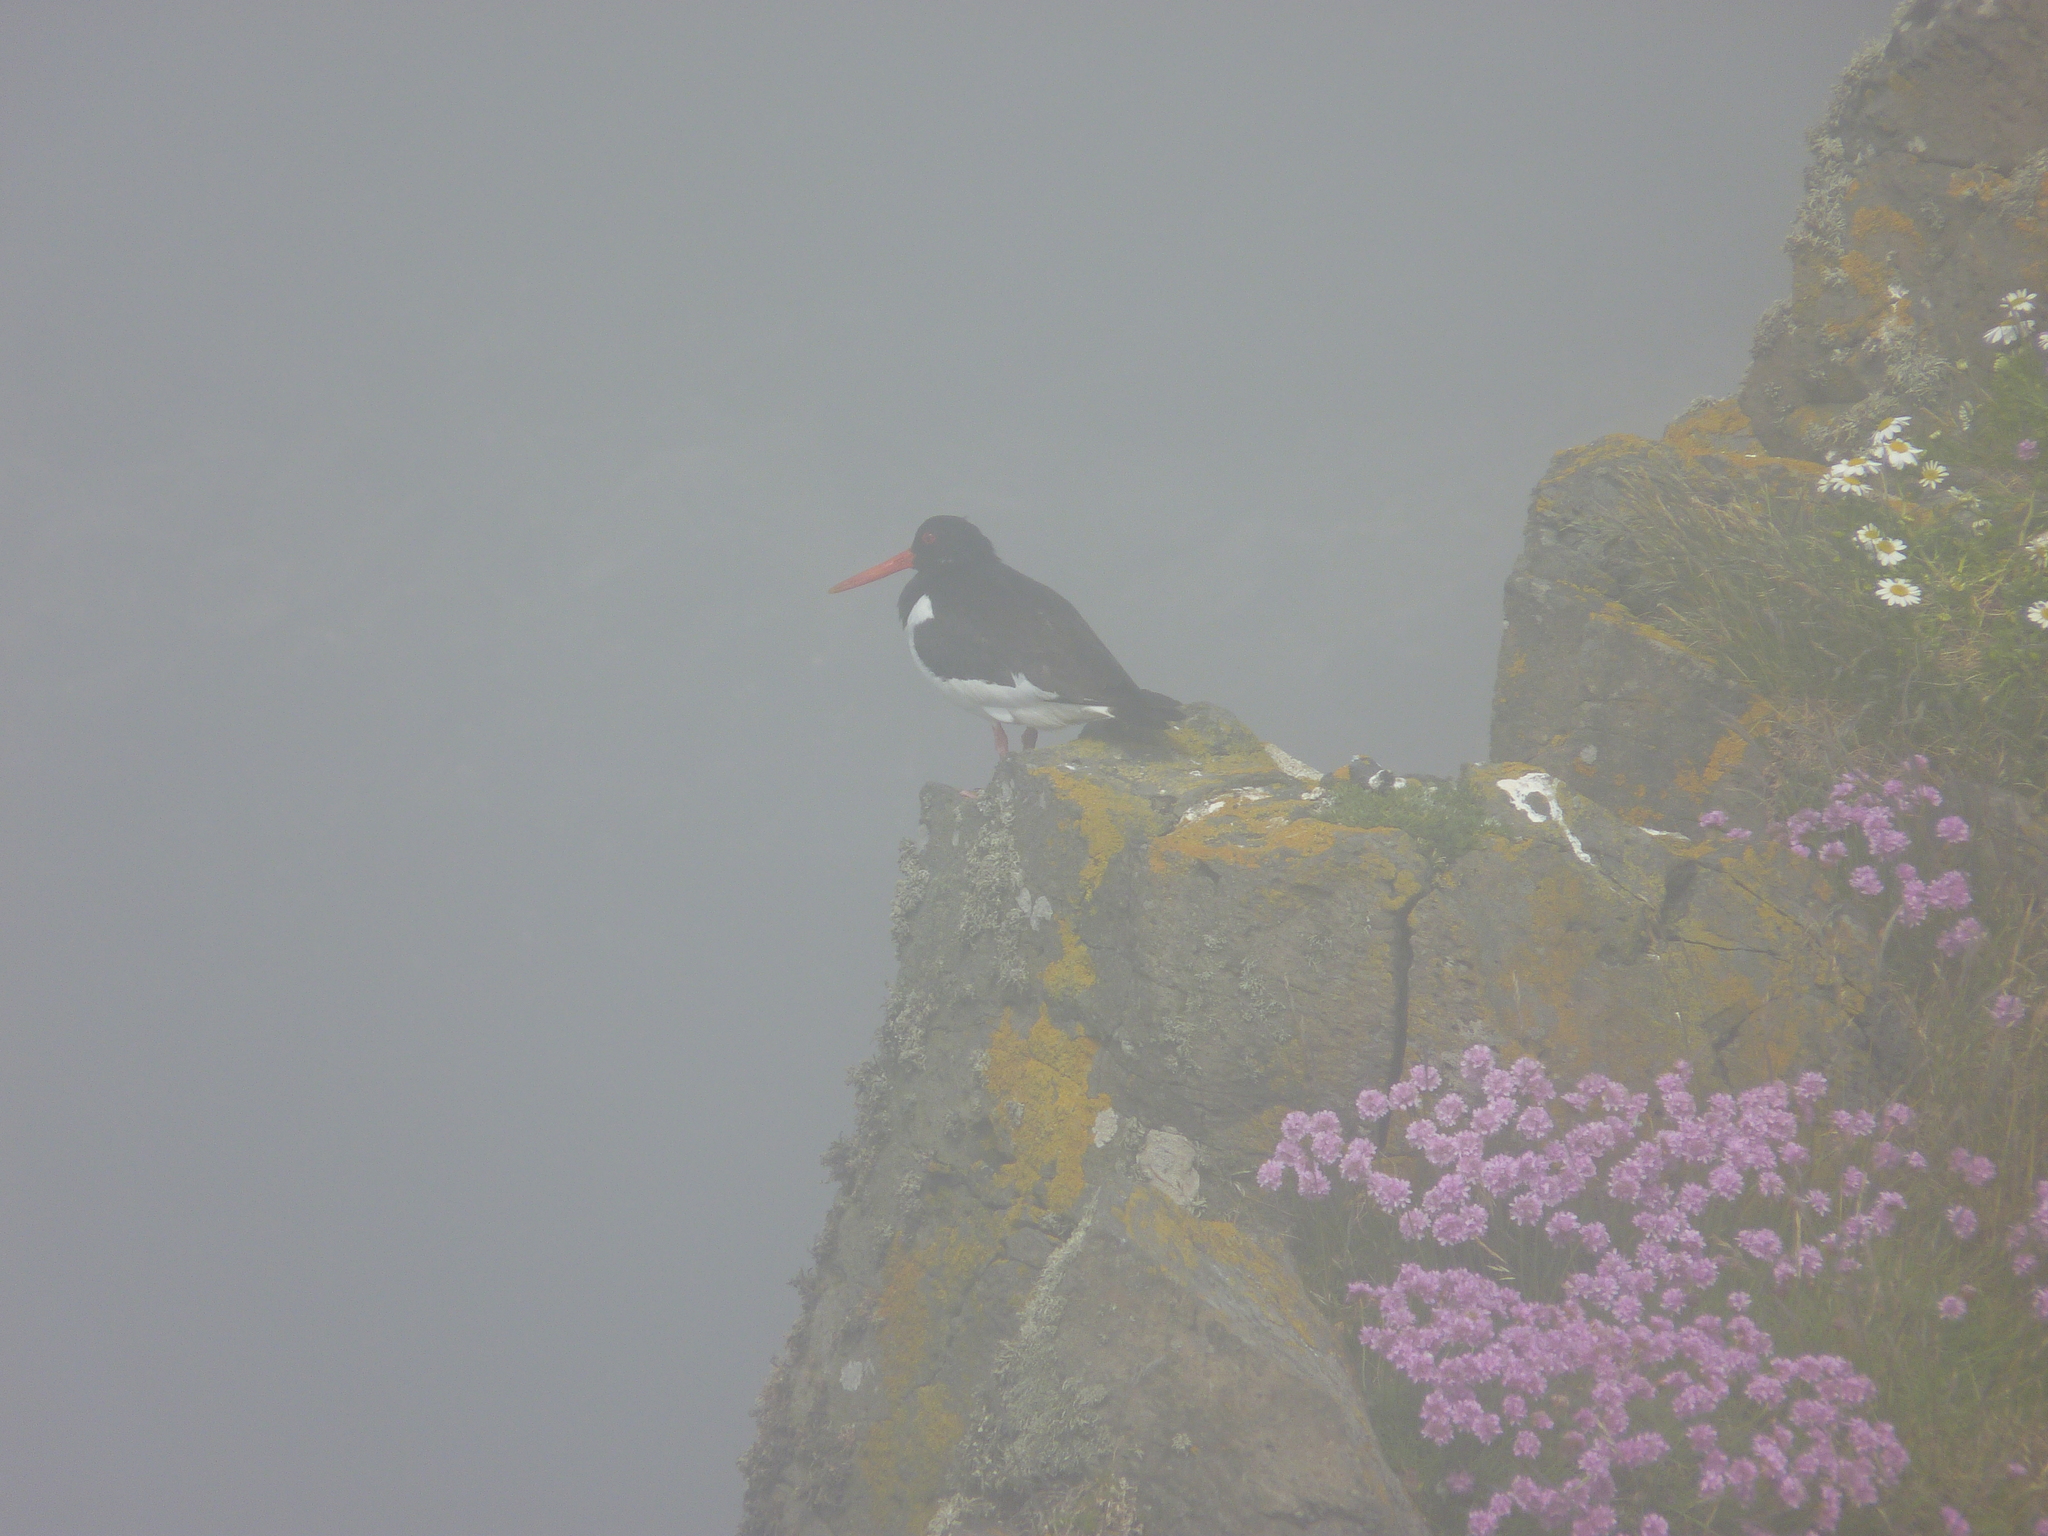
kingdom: Animalia
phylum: Chordata
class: Aves
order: Charadriiformes
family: Haematopodidae
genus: Haematopus
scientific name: Haematopus ostralegus
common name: Eurasian oystercatcher
